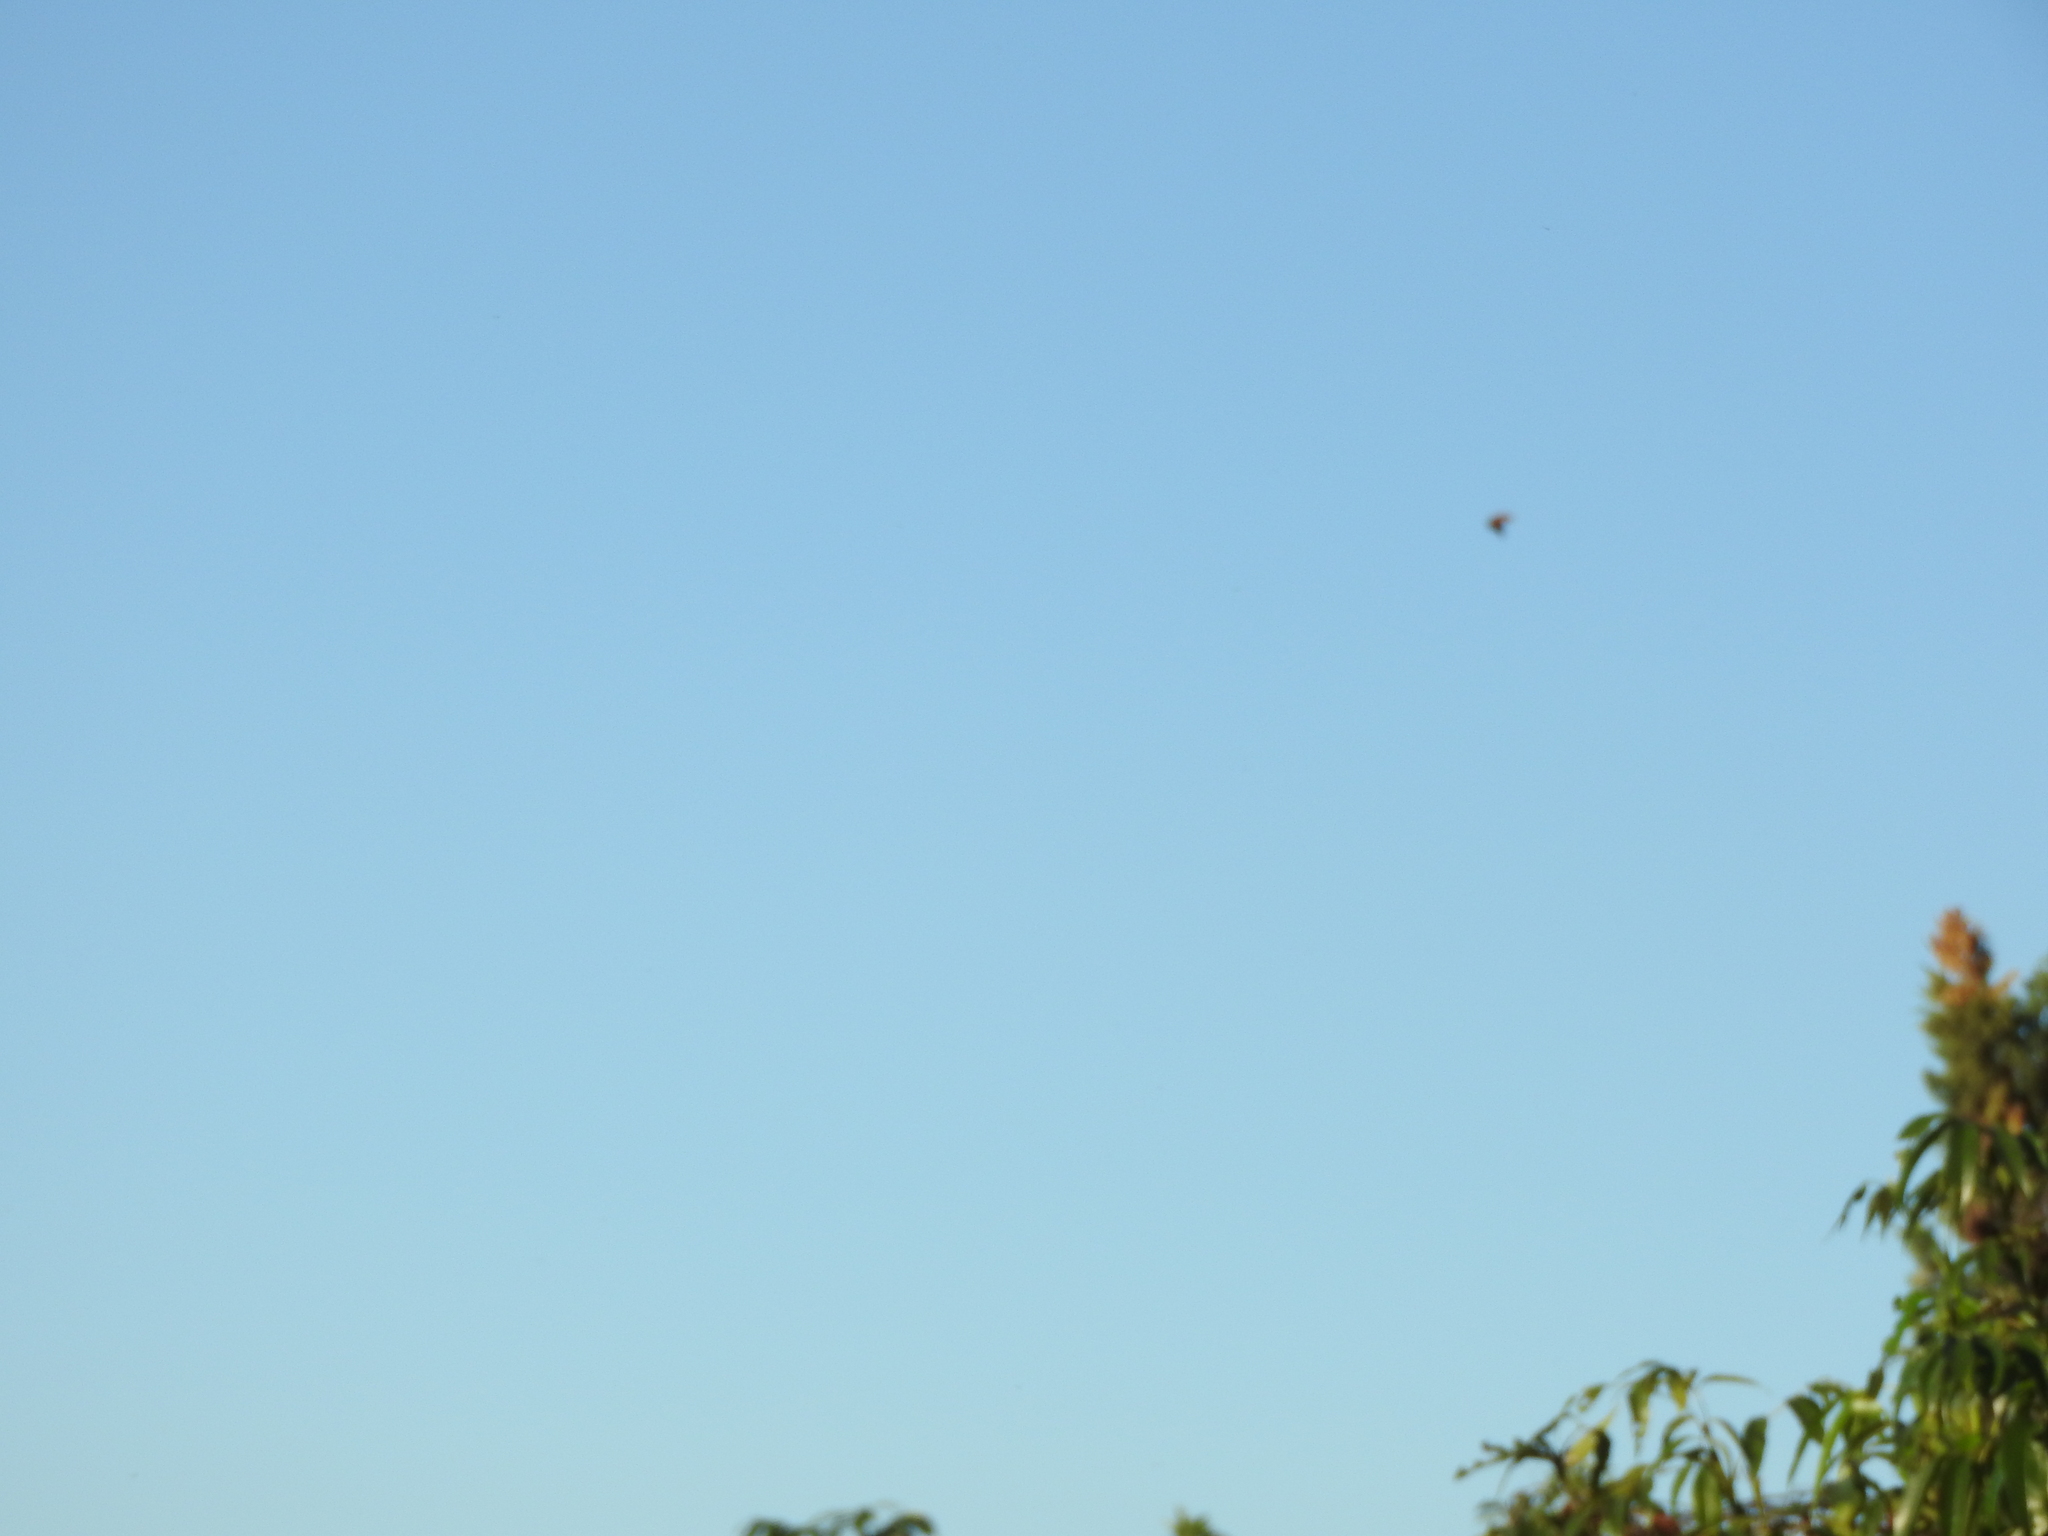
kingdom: Animalia
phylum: Arthropoda
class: Insecta
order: Lepidoptera
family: Nymphalidae
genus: Danaus
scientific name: Danaus plexippus
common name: Monarch
